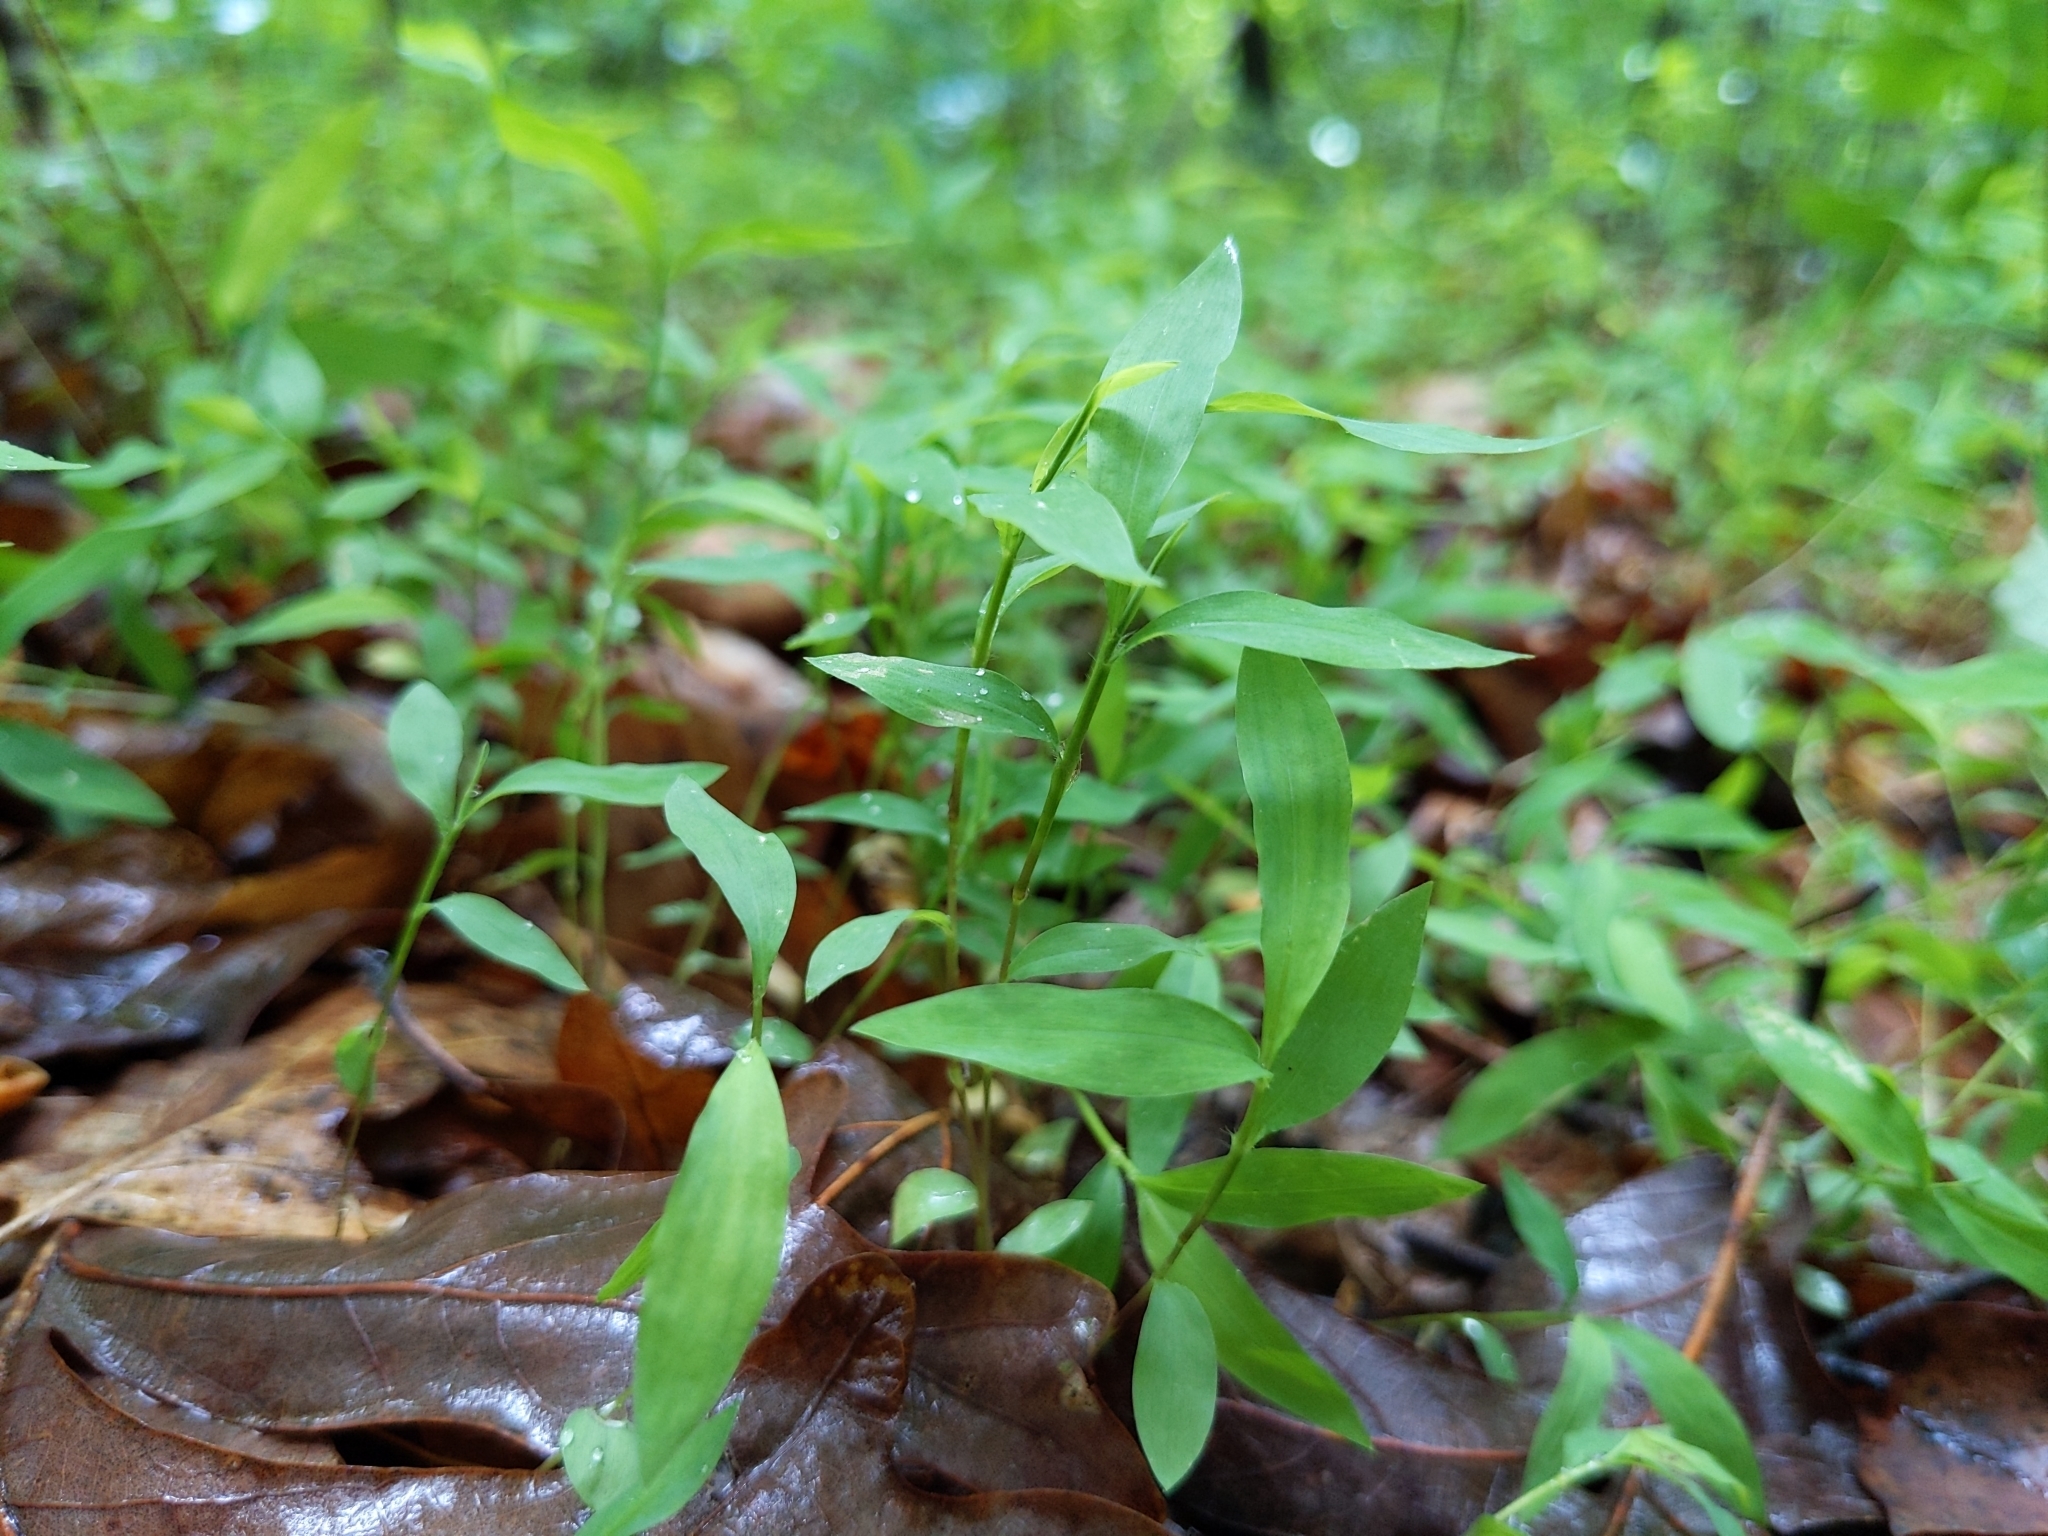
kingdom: Plantae
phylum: Tracheophyta
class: Liliopsida
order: Poales
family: Poaceae
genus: Microstegium
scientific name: Microstegium vimineum
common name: Japanese stiltgrass
